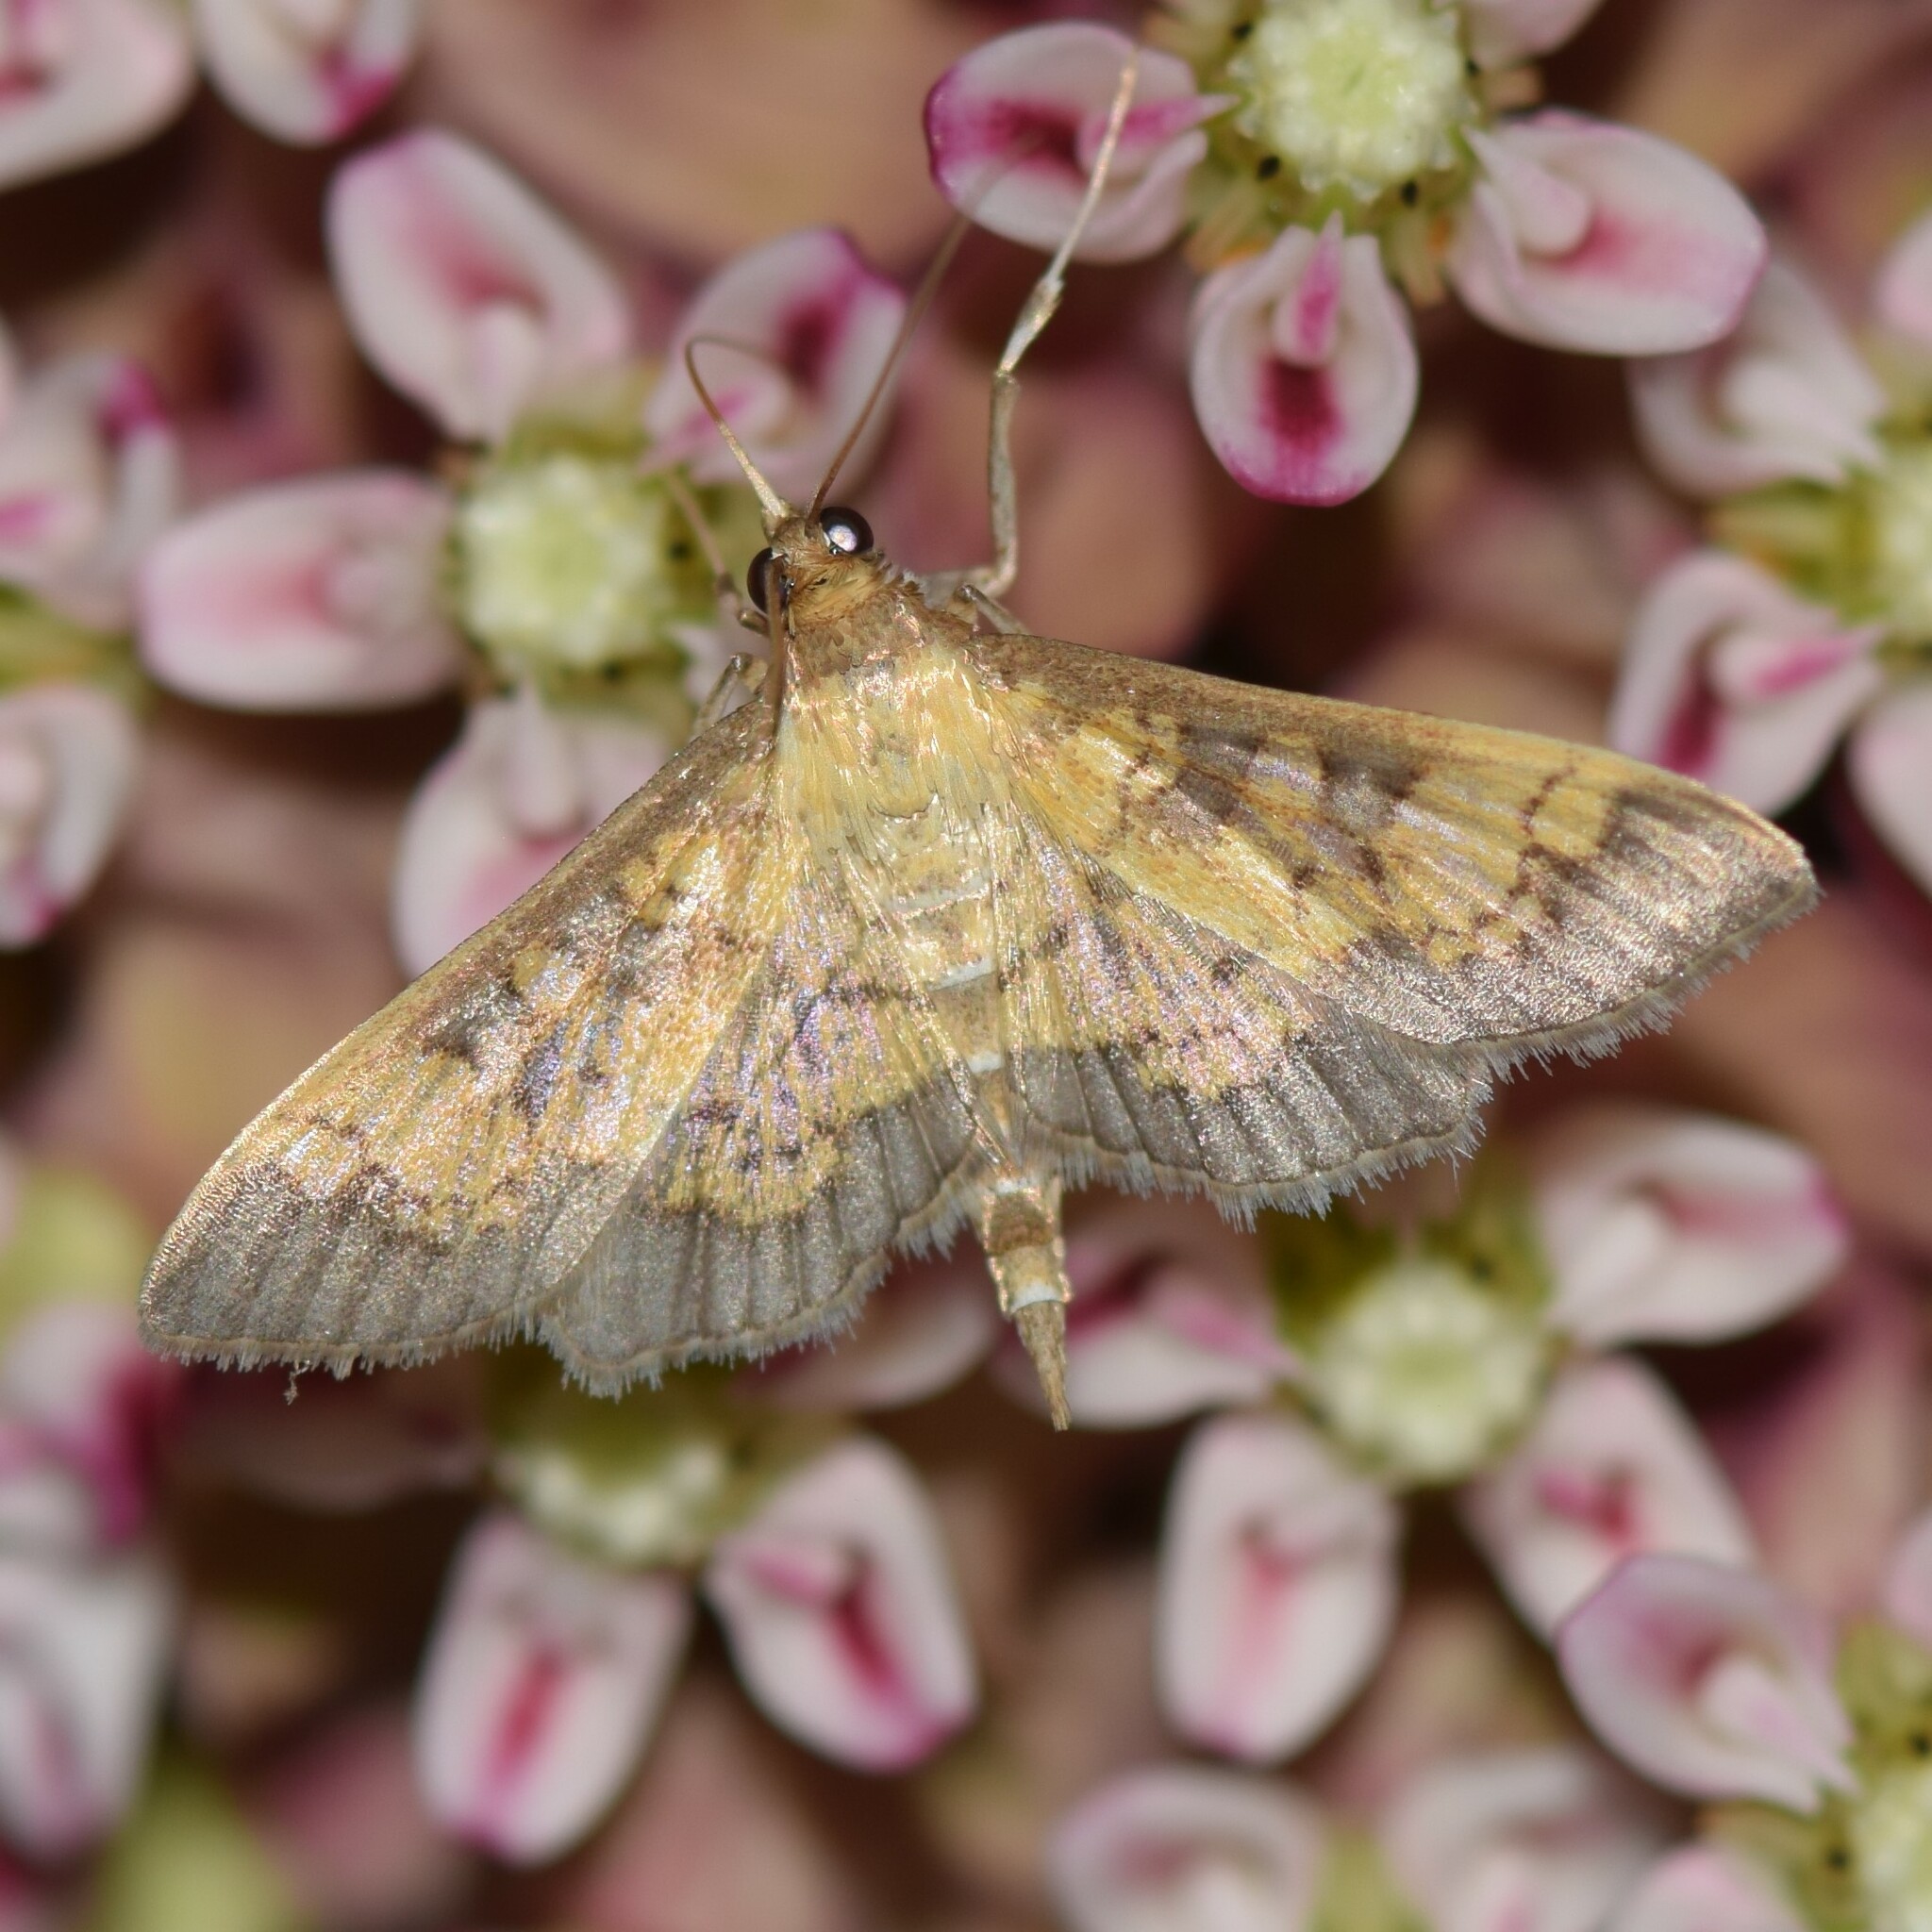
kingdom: Animalia
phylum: Arthropoda
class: Insecta
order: Lepidoptera
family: Crambidae
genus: Epipagis
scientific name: Epipagis adipaloides
